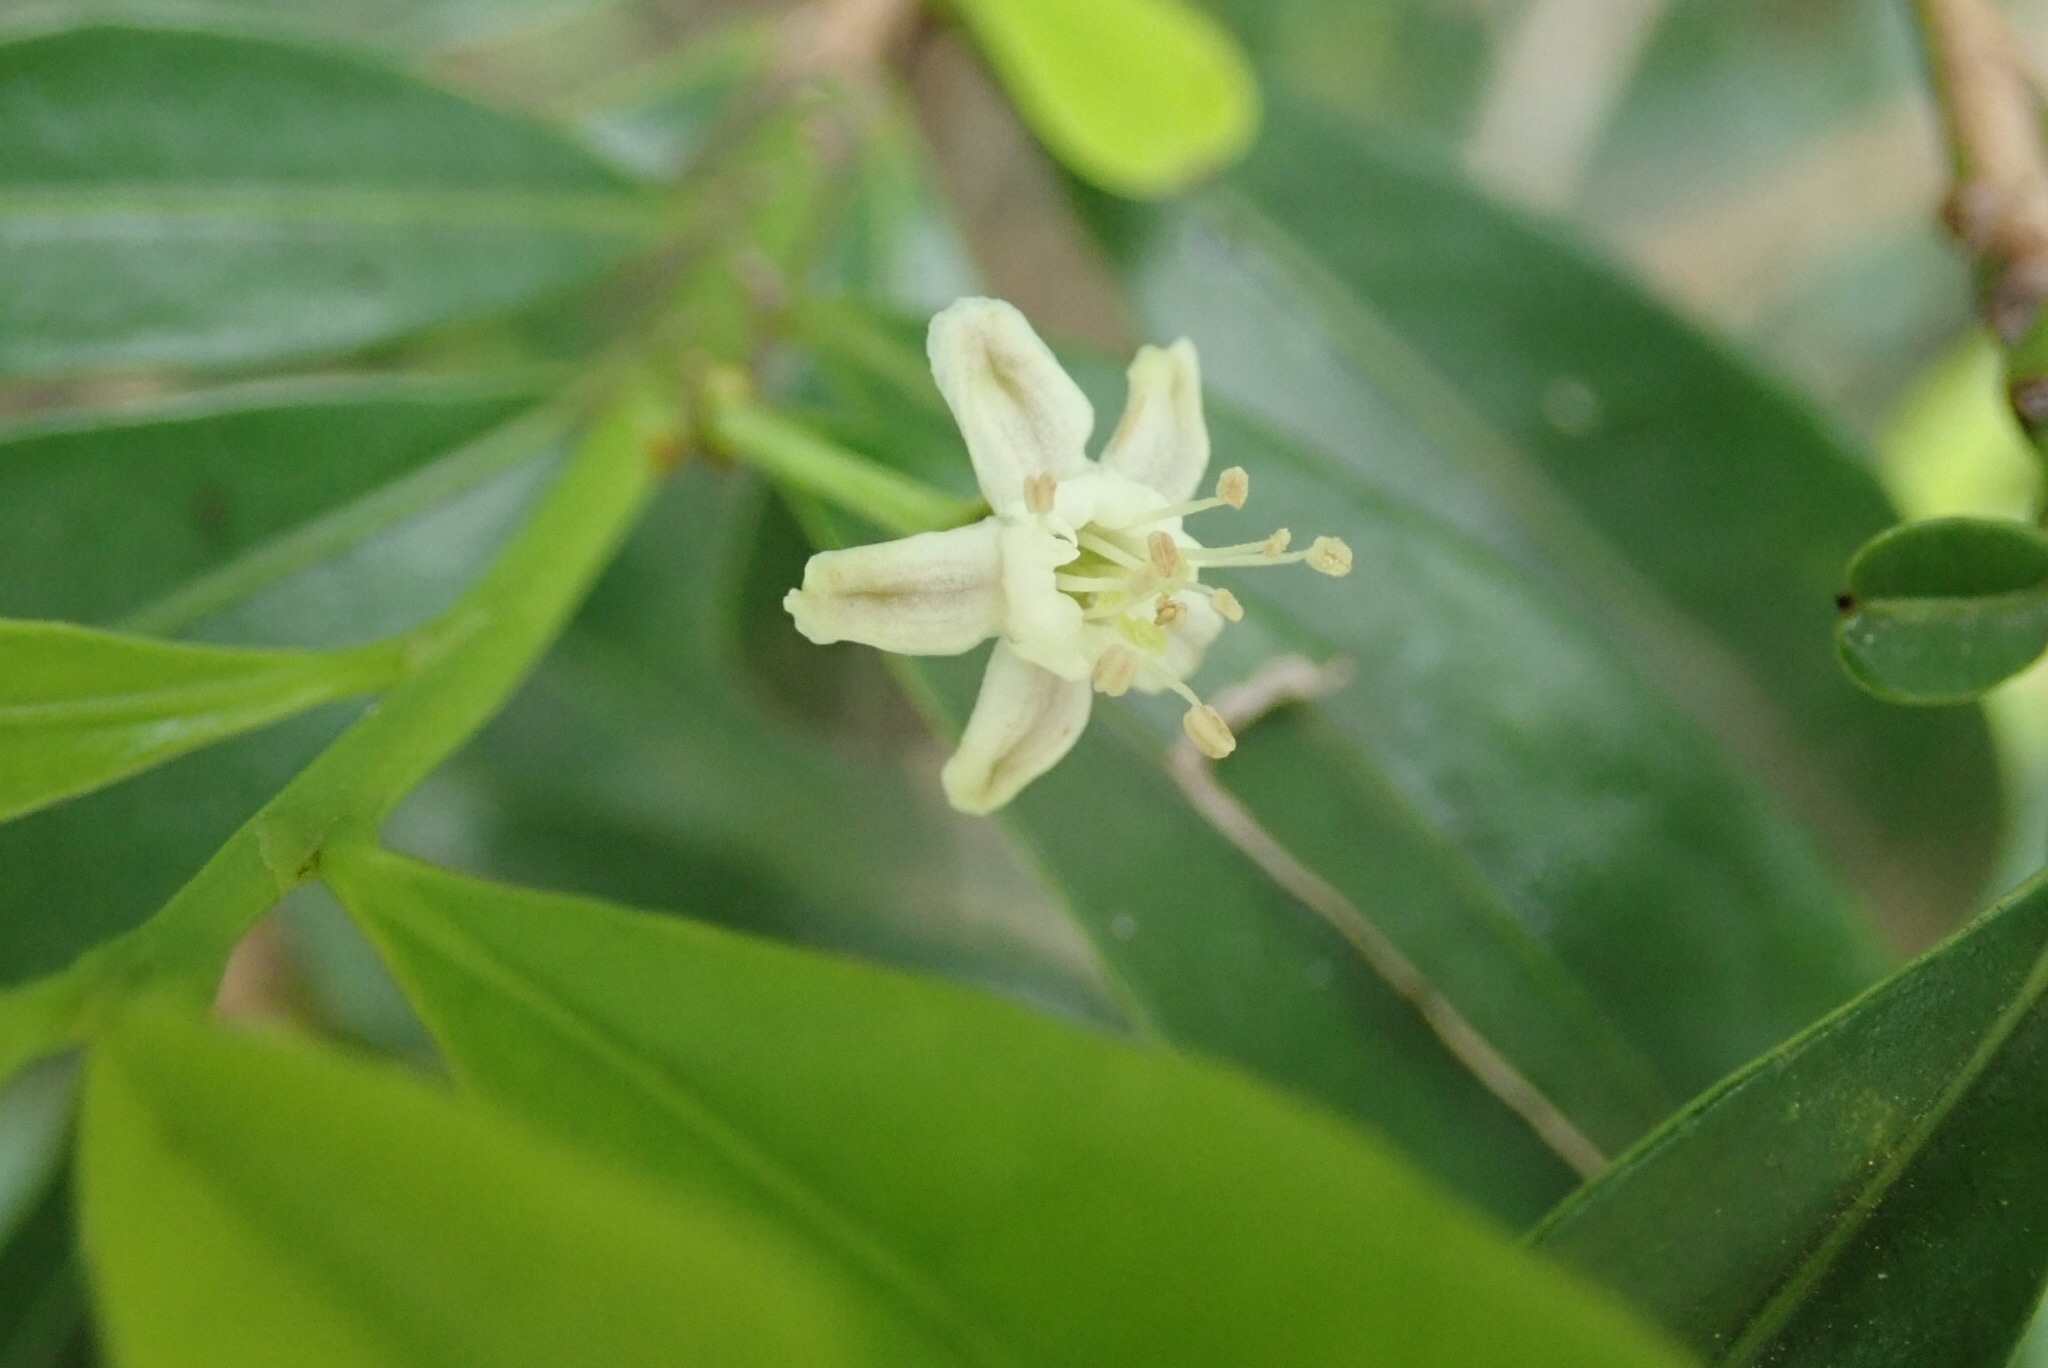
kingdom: Plantae
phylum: Tracheophyta
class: Magnoliopsida
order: Malpighiales
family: Erythroxylaceae
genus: Erythroxylum
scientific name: Erythroxylum emarginatum
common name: African coca-tree
